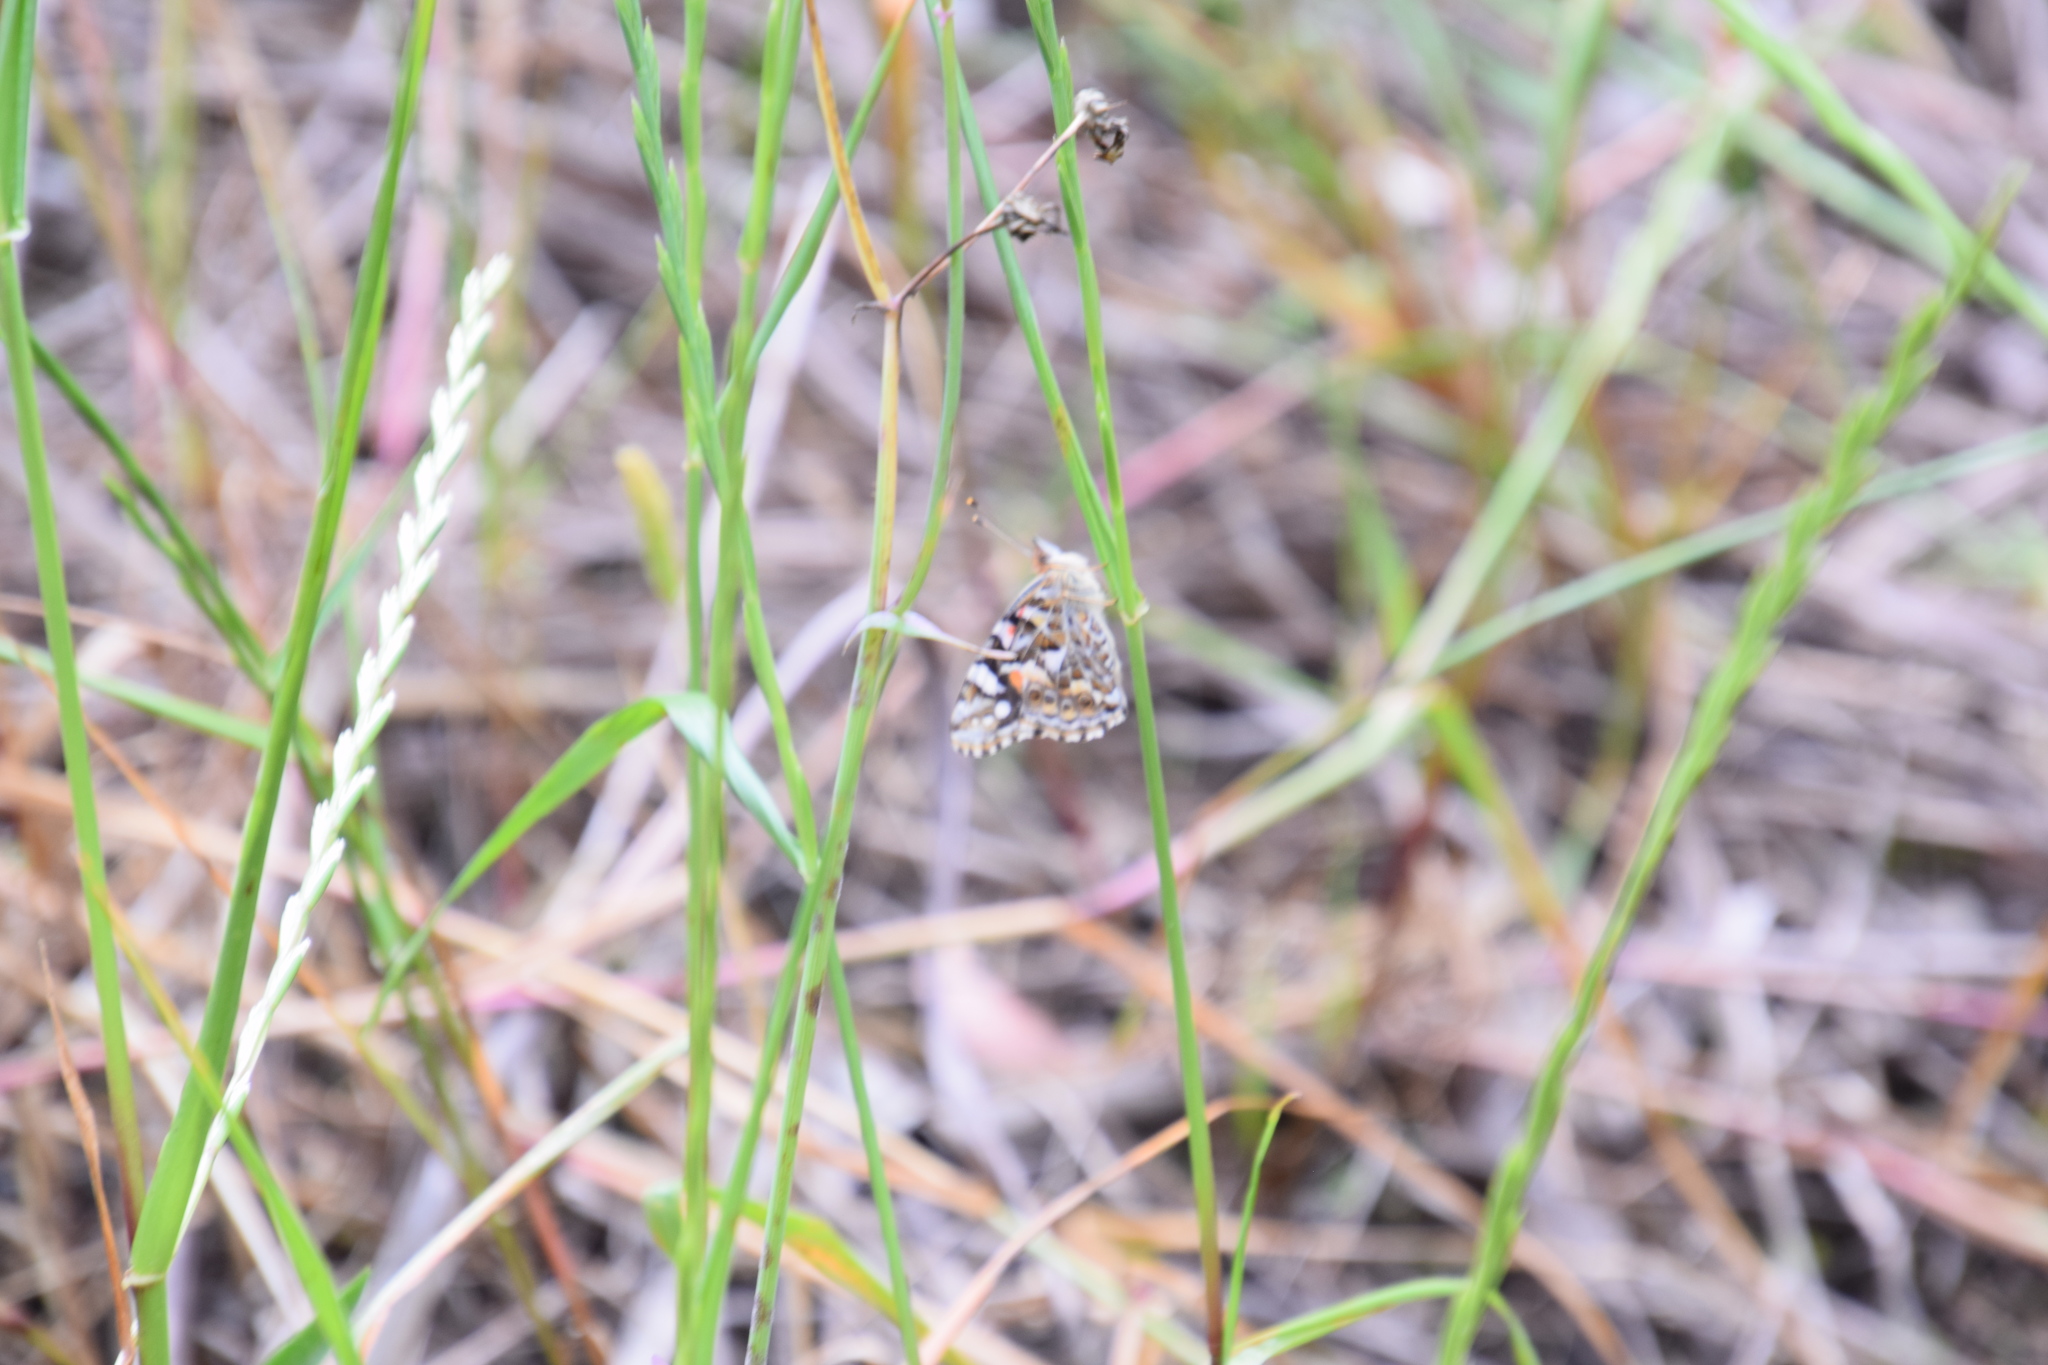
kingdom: Animalia
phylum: Arthropoda
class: Insecta
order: Lepidoptera
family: Nymphalidae
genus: Vanessa
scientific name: Vanessa kershawi
